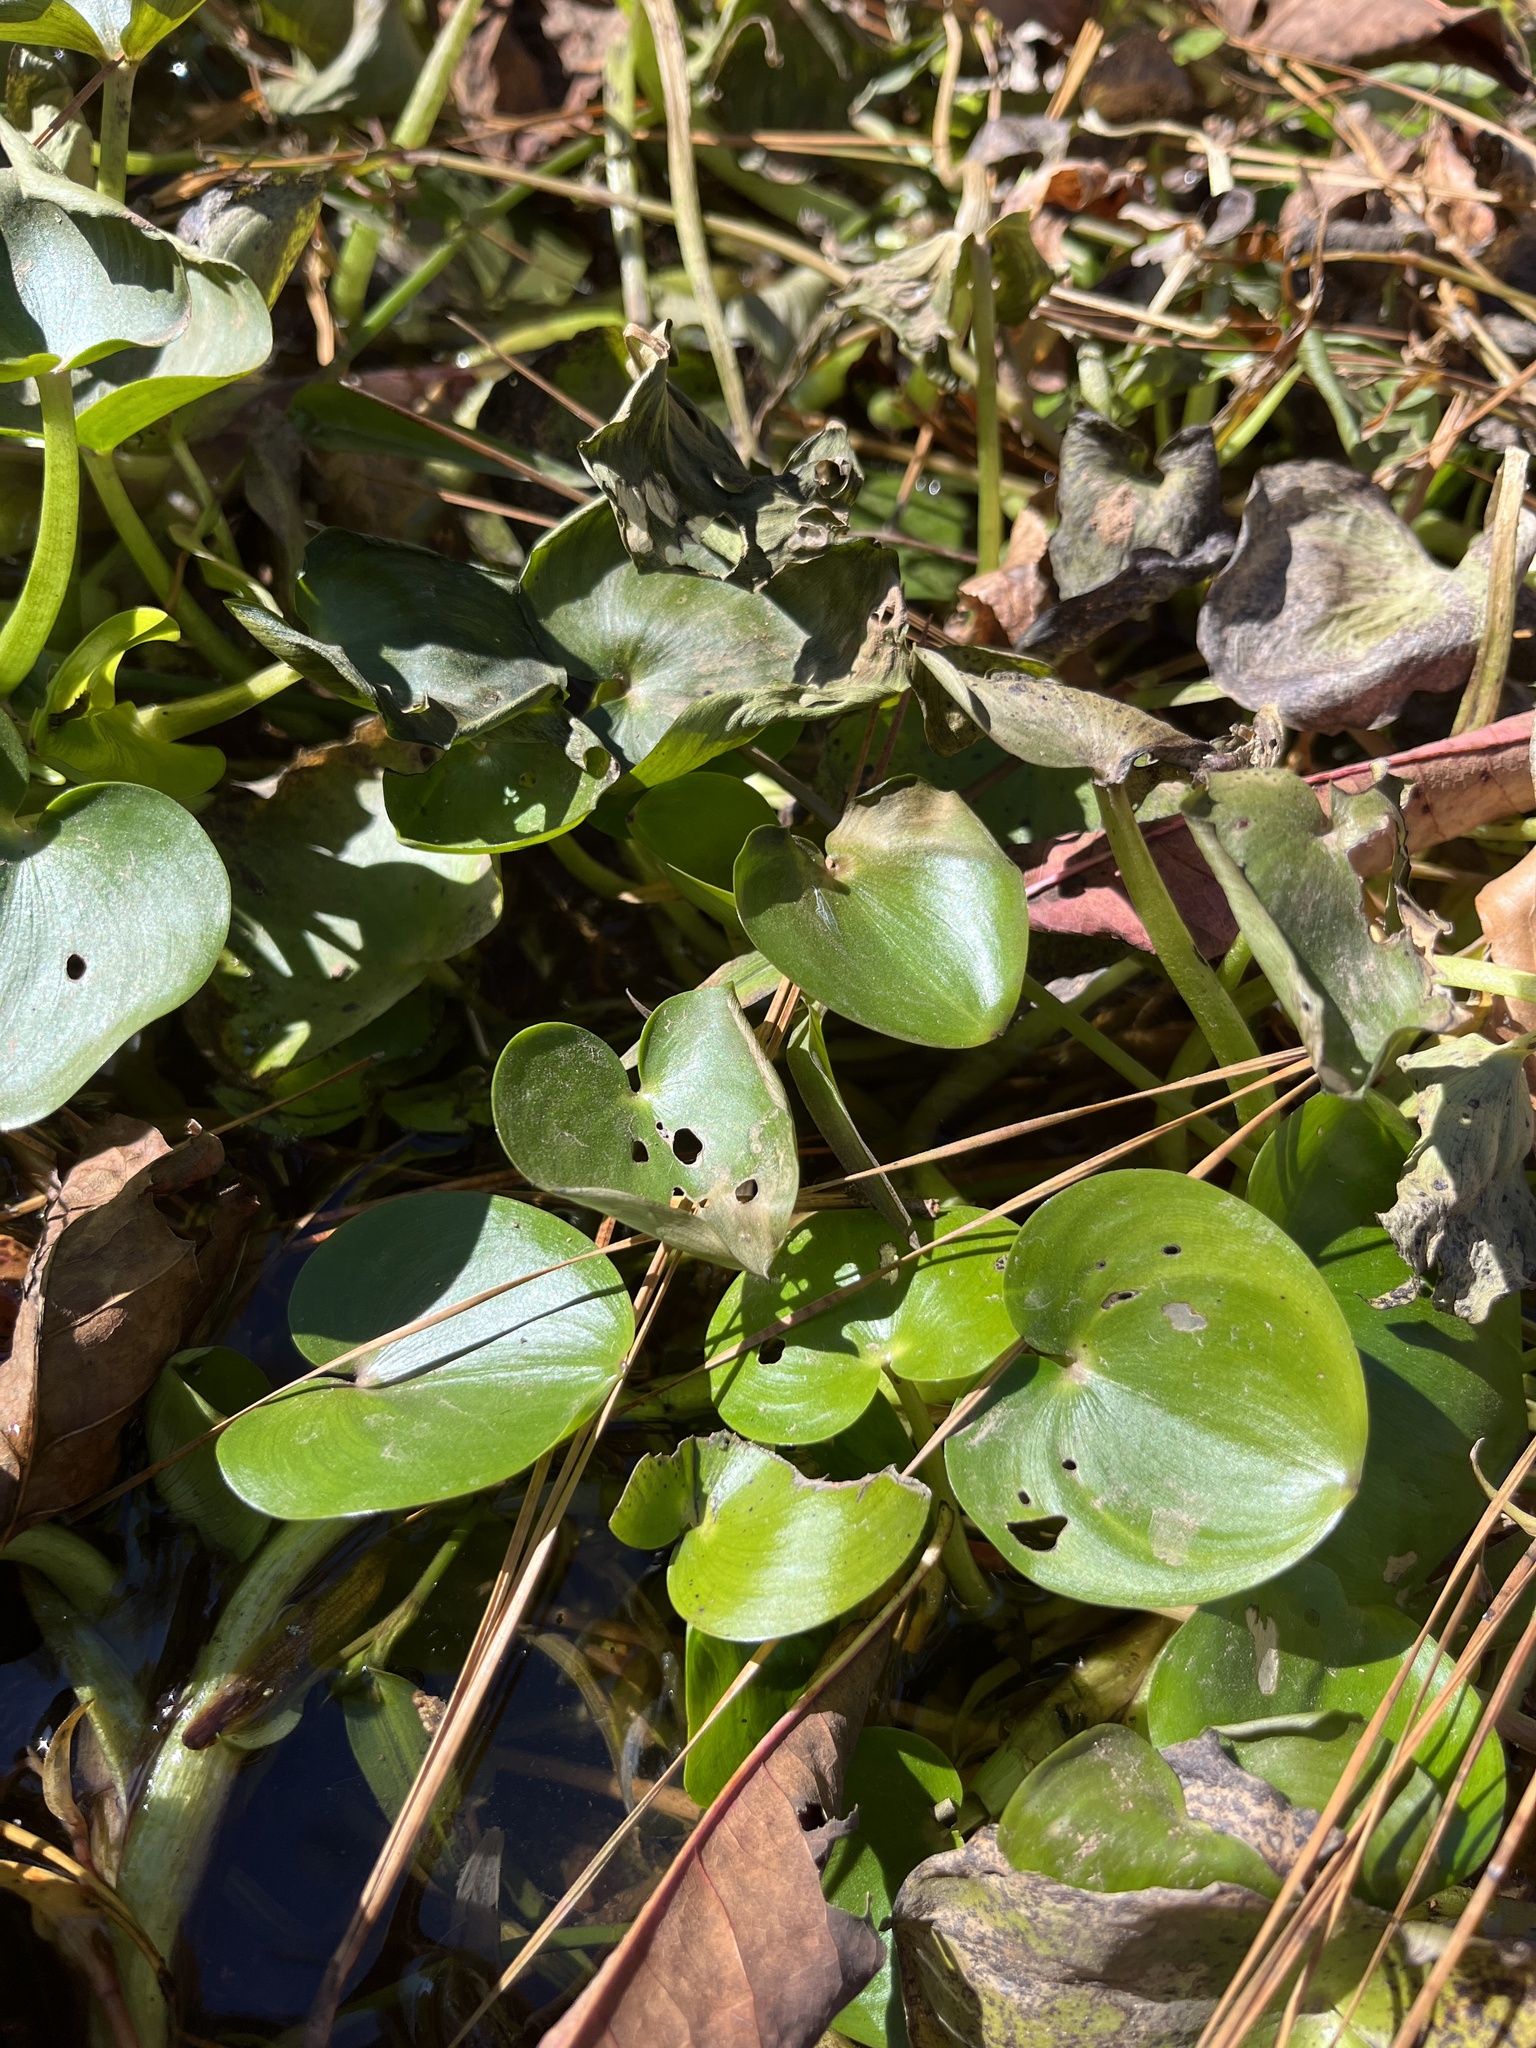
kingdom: Plantae
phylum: Tracheophyta
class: Liliopsida
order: Commelinales
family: Pontederiaceae
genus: Heteranthera
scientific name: Heteranthera pauciflora
